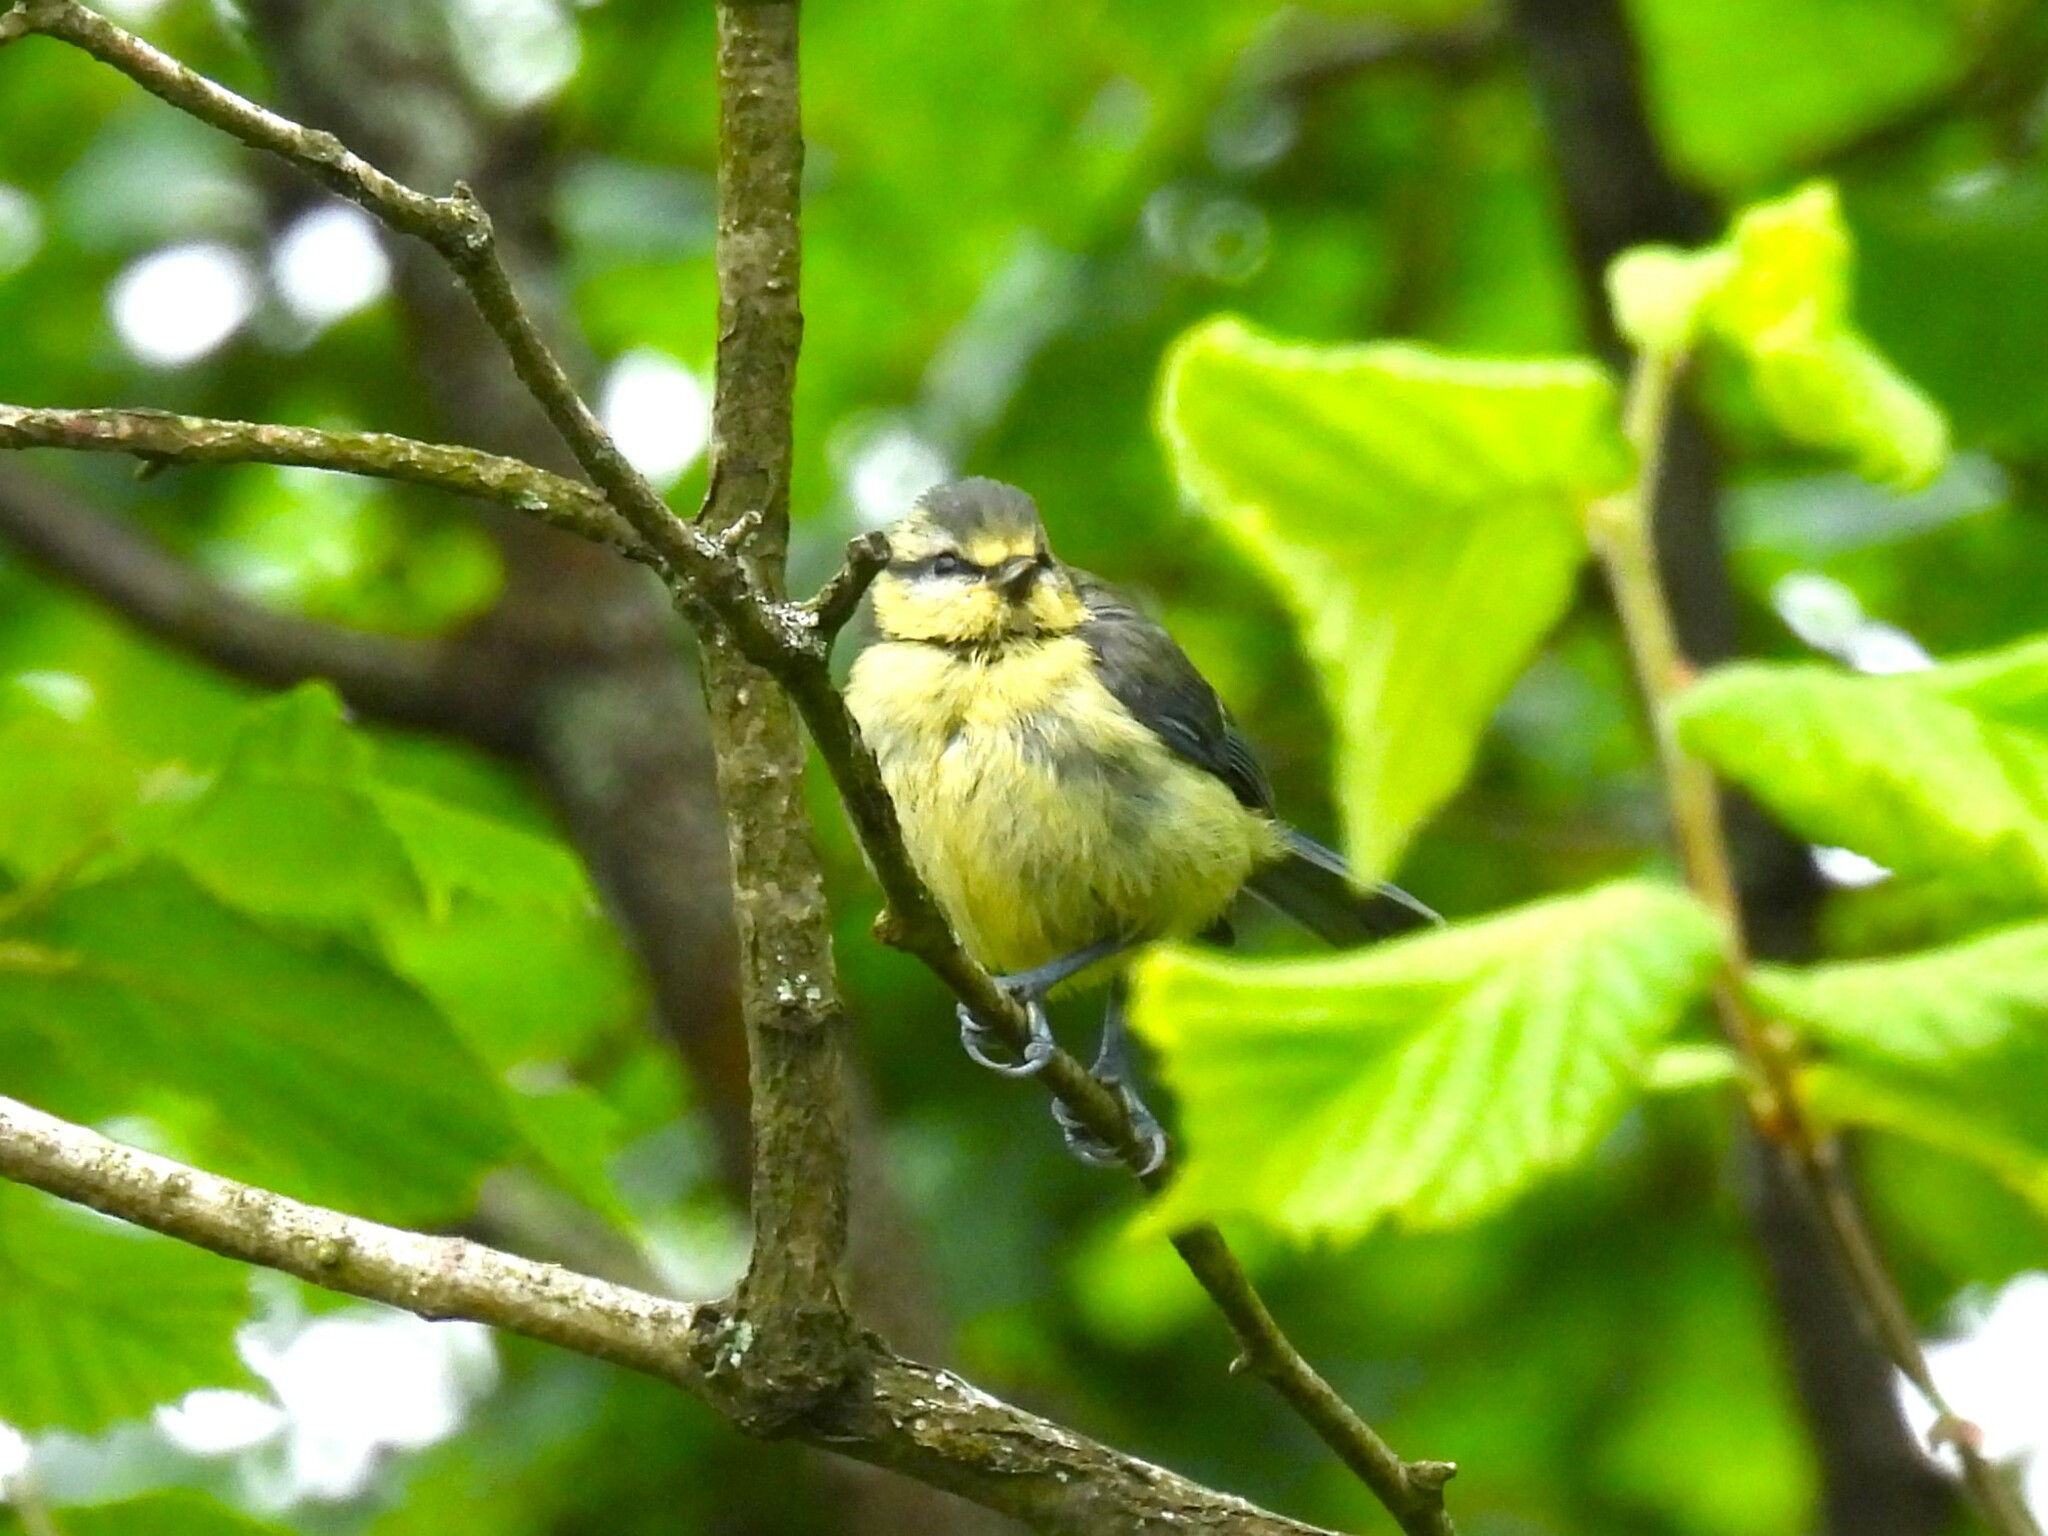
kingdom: Animalia
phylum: Chordata
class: Aves
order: Passeriformes
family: Paridae
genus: Cyanistes
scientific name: Cyanistes caeruleus
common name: Eurasian blue tit
